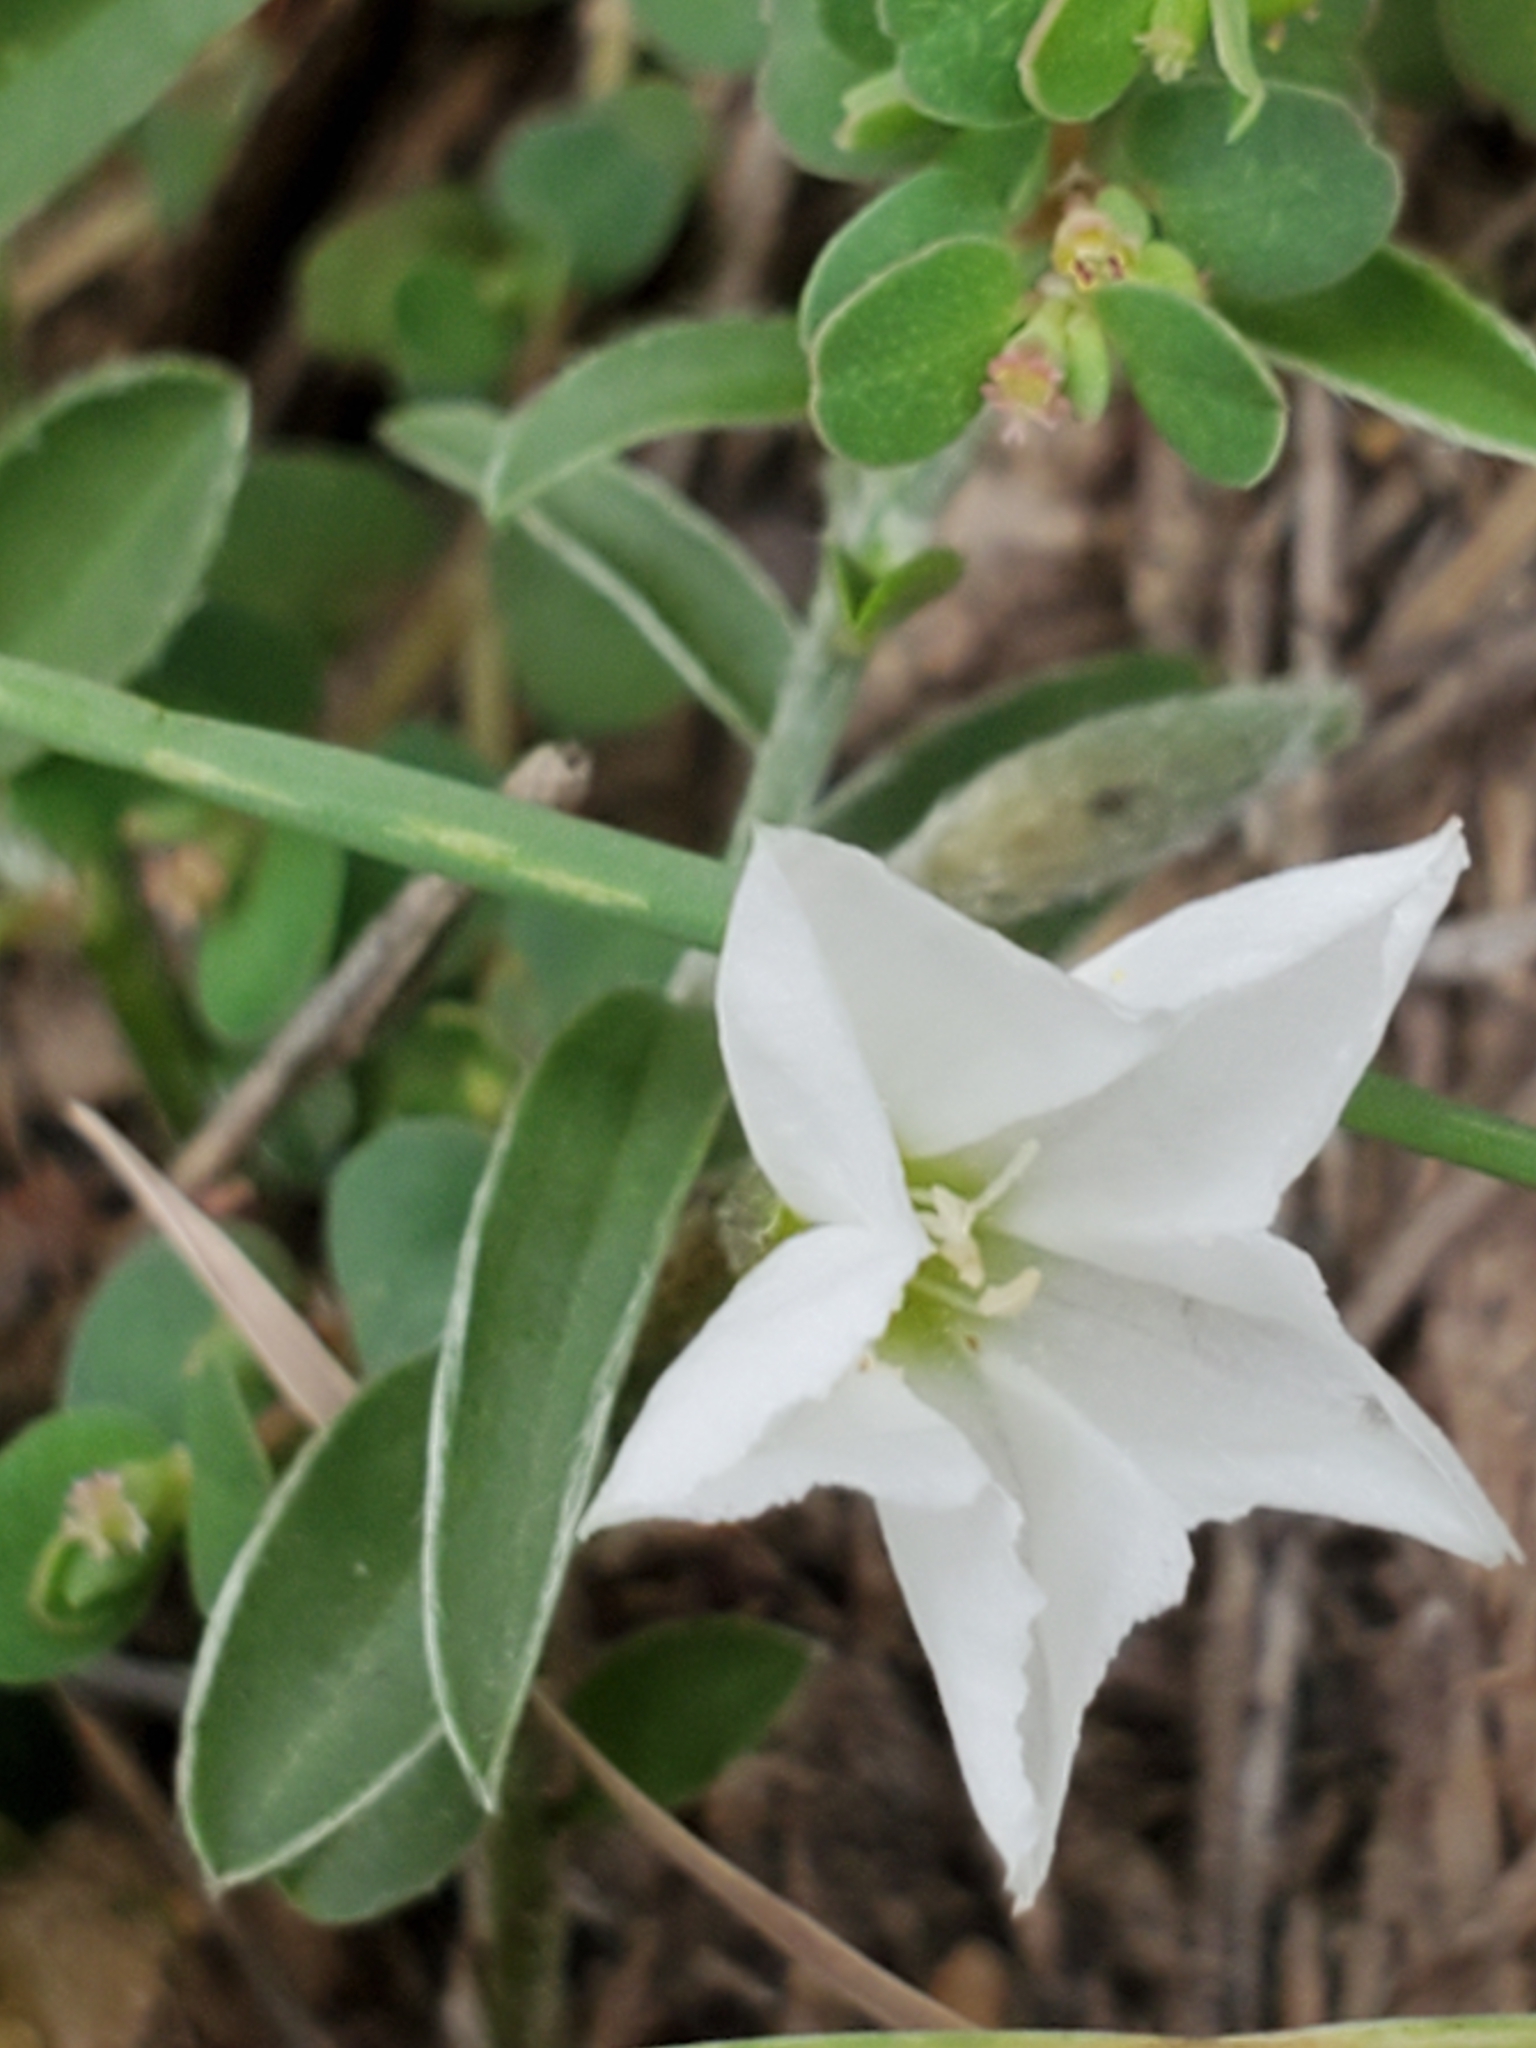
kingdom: Plantae
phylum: Tracheophyta
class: Magnoliopsida
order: Solanales
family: Convolvulaceae
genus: Evolvulus
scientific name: Evolvulus sericeus
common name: Blue dots
